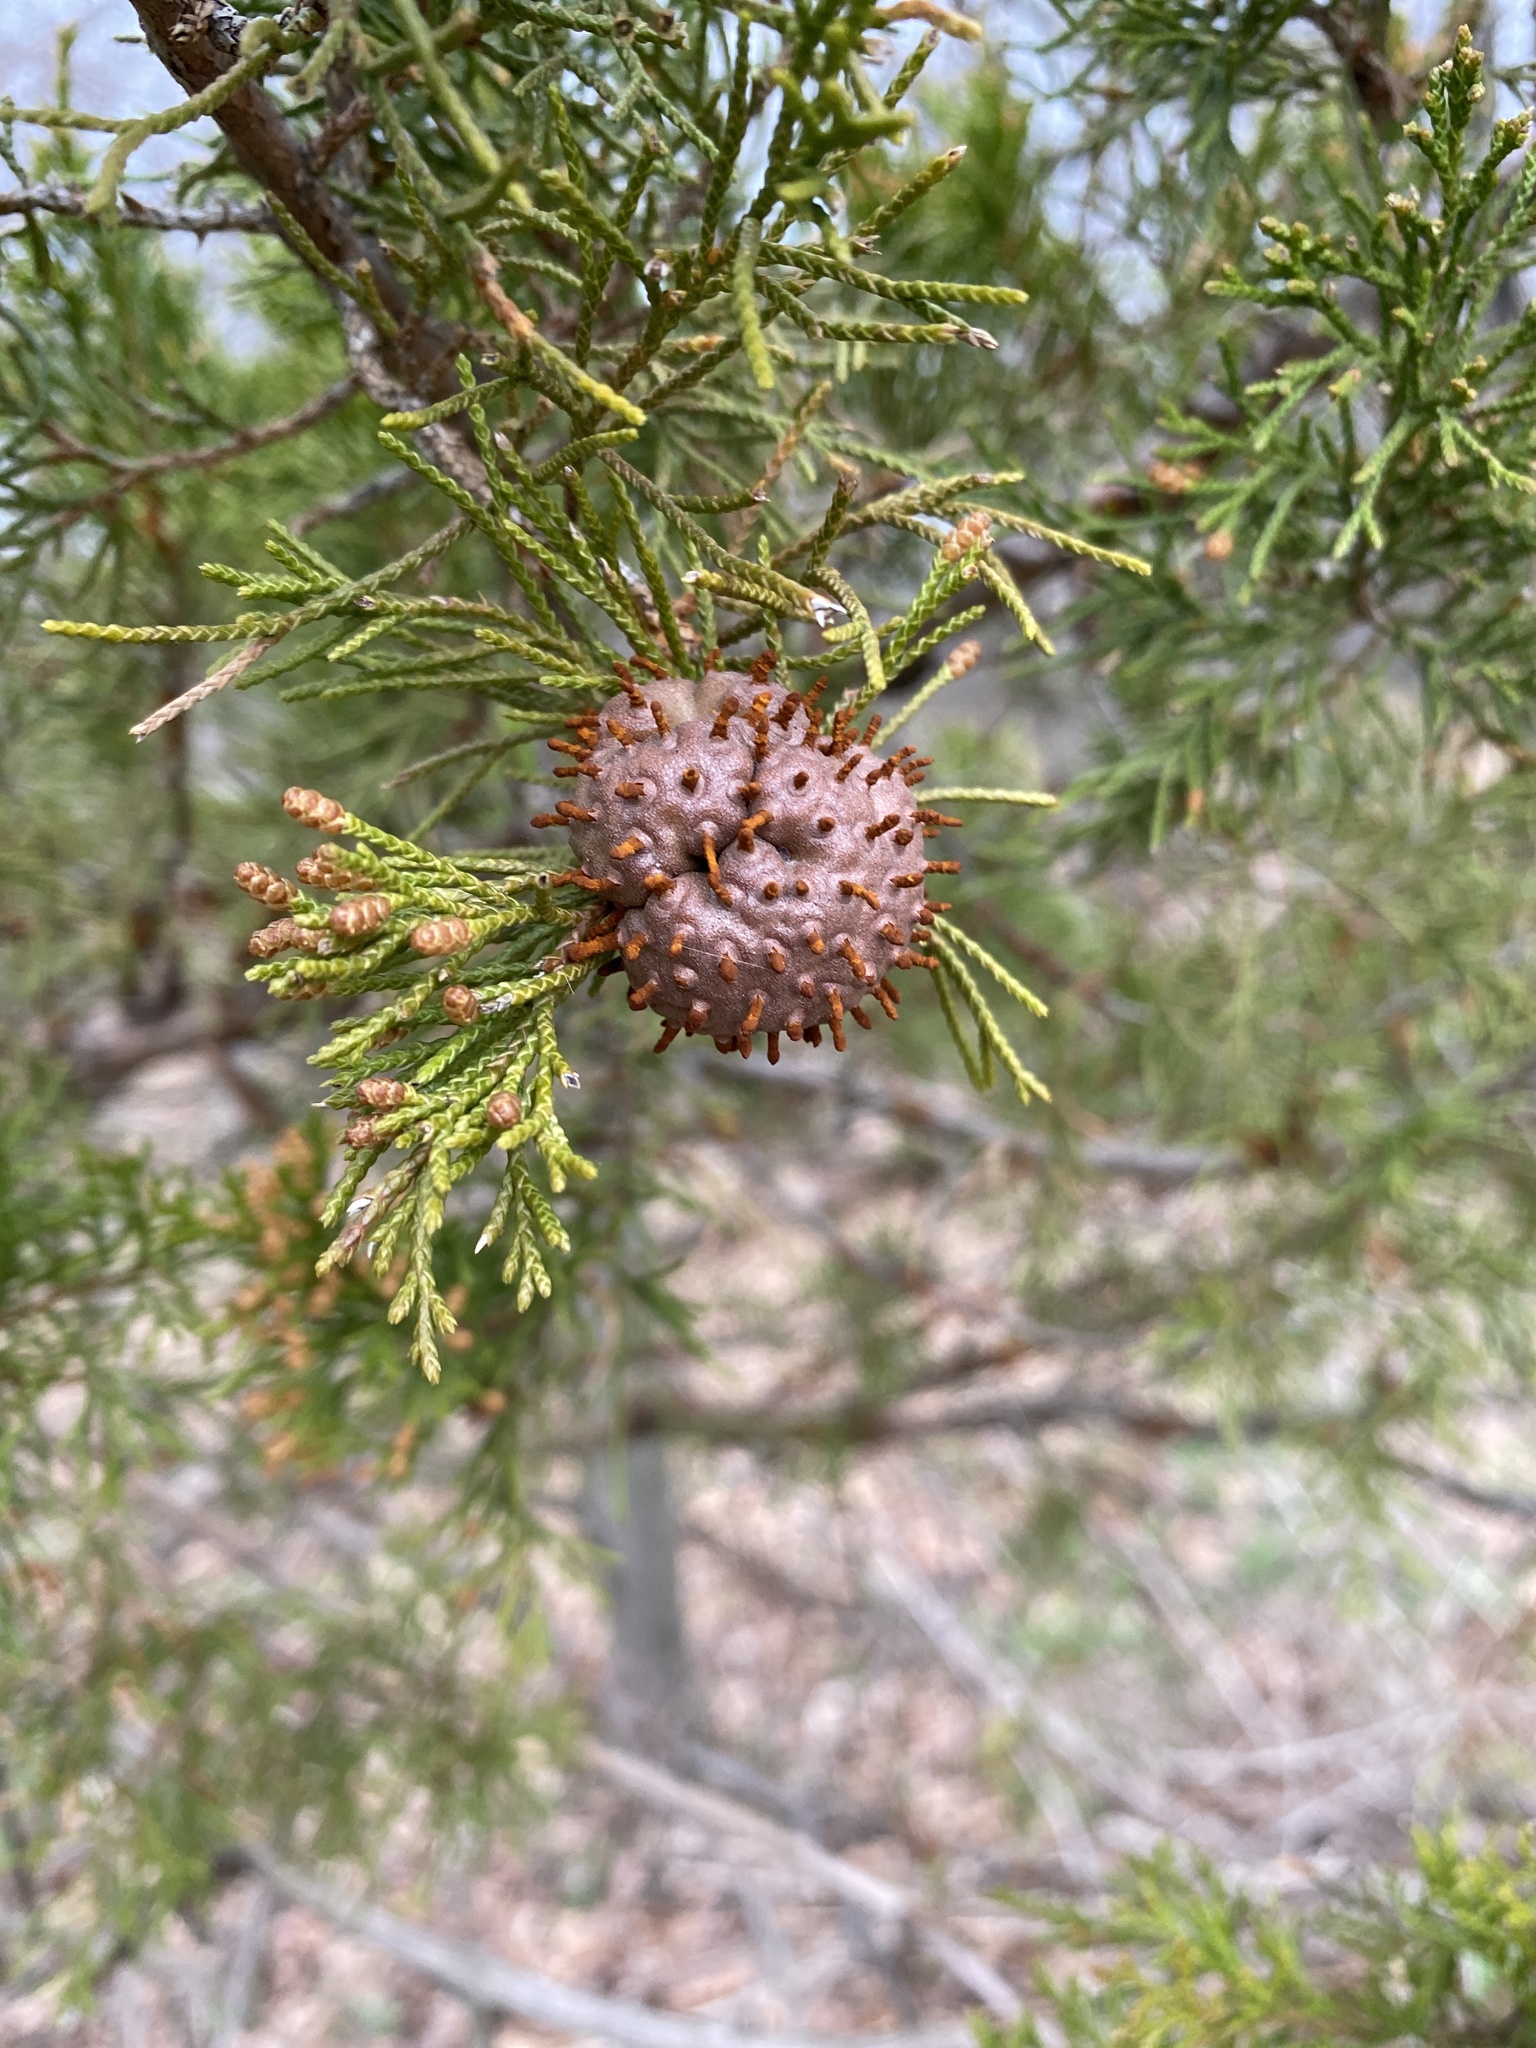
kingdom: Fungi
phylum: Basidiomycota
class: Pucciniomycetes
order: Pucciniales
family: Gymnosporangiaceae
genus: Gymnosporangium
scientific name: Gymnosporangium juniperi-virginianae
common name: Juniper-apple rust
